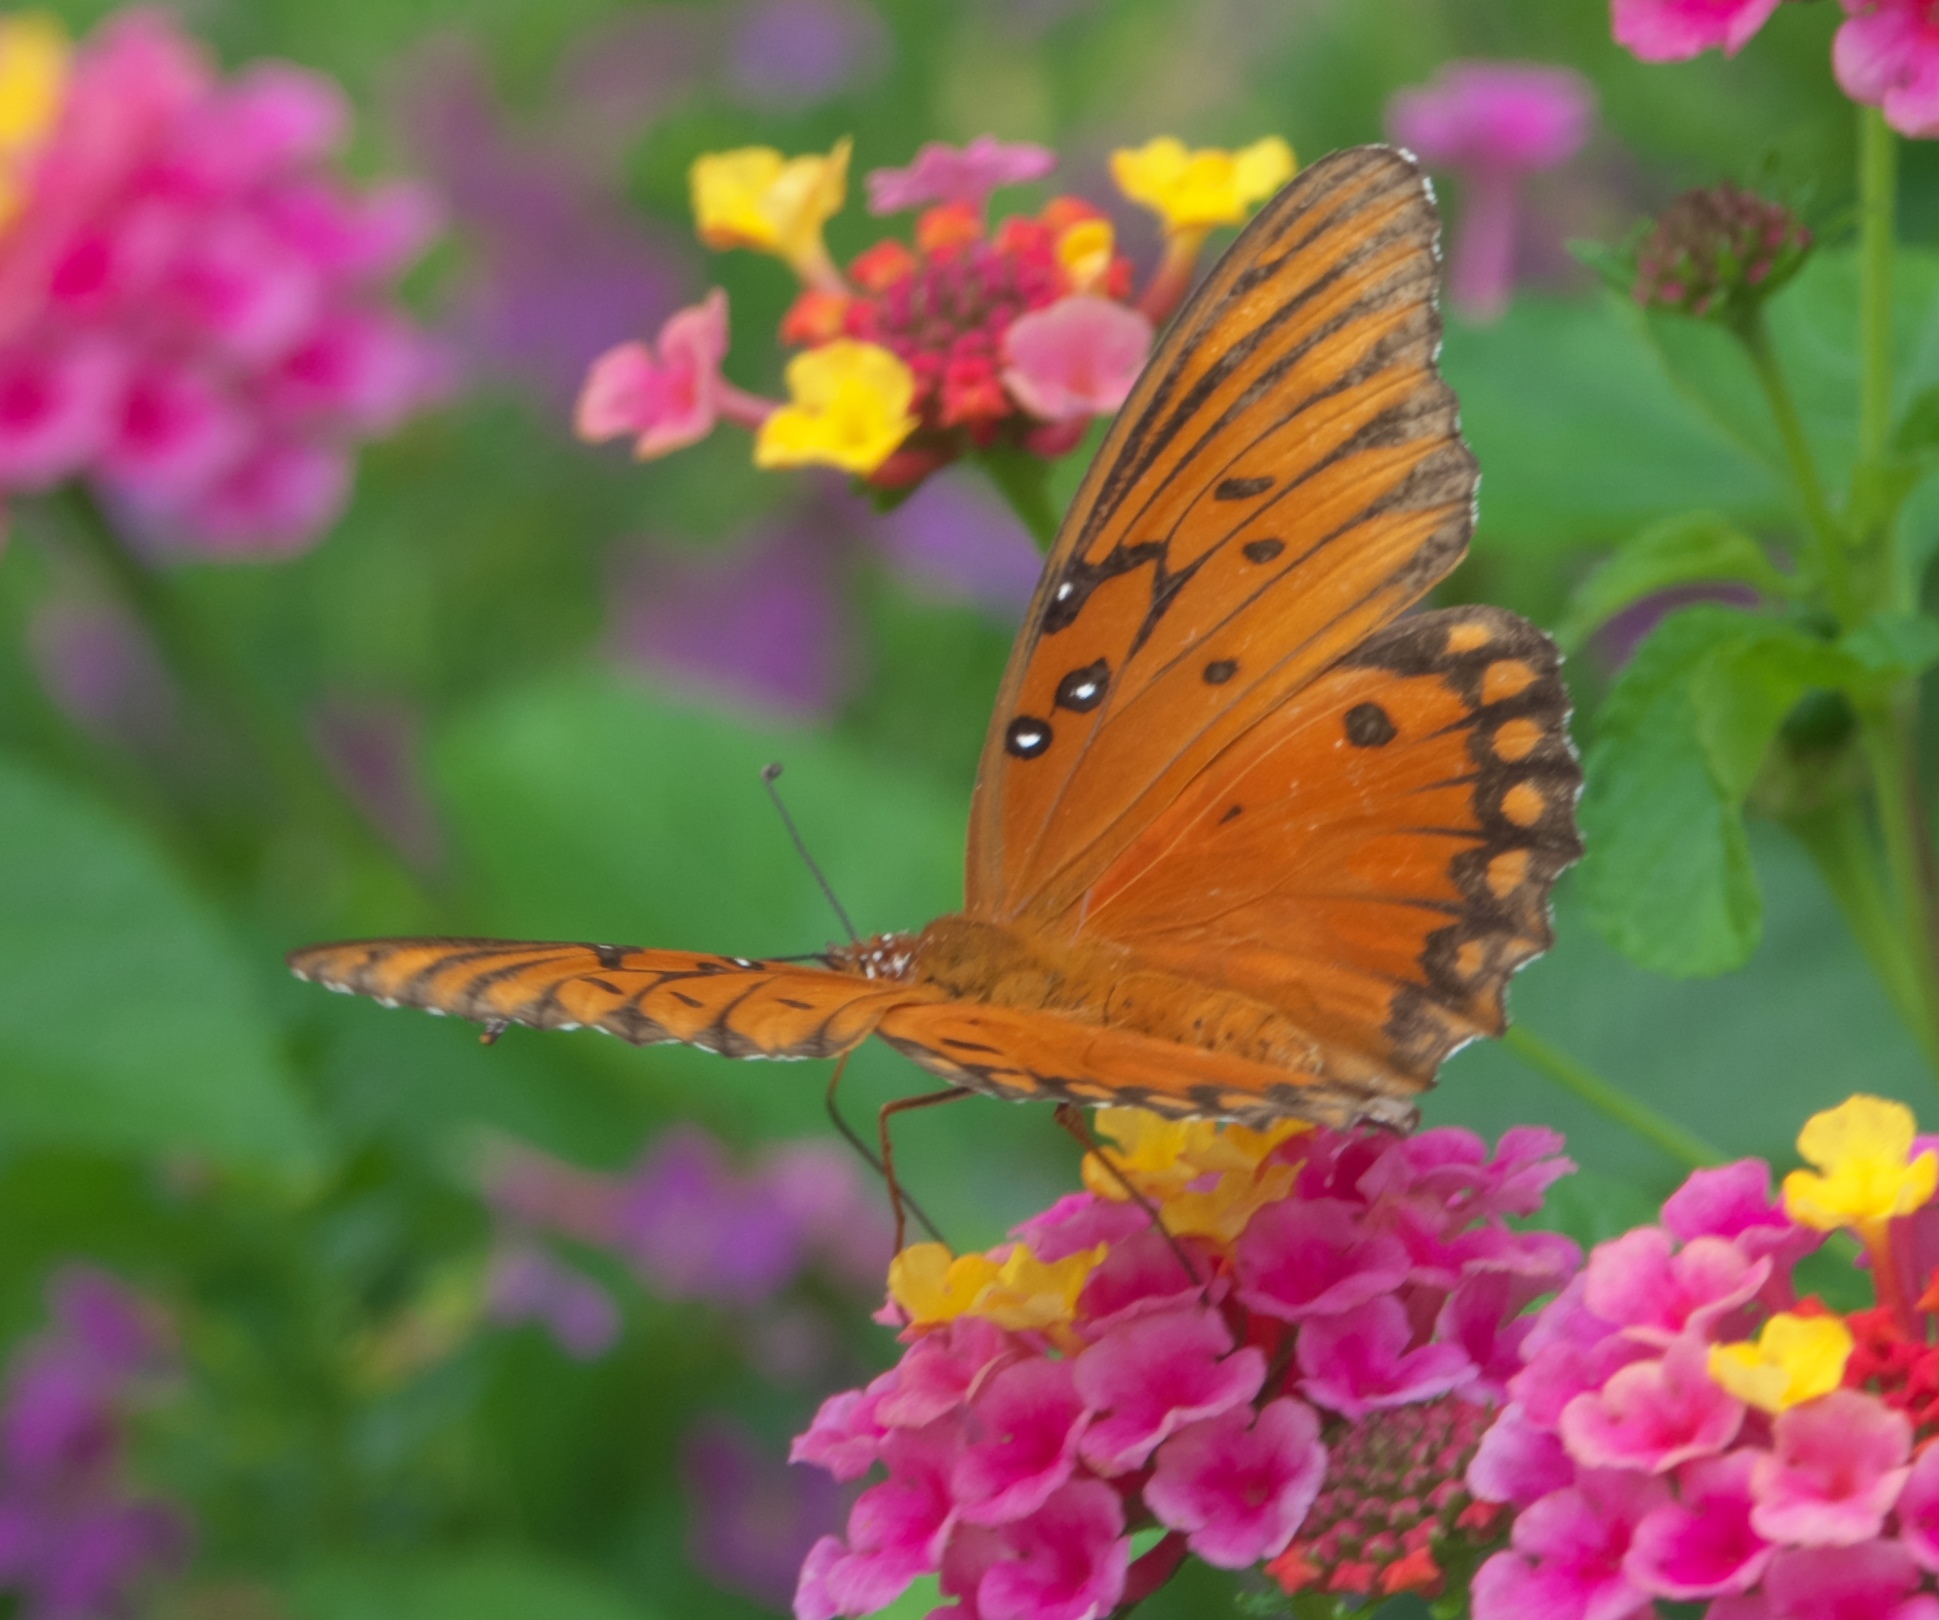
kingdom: Animalia
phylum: Arthropoda
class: Insecta
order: Lepidoptera
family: Nymphalidae
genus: Dione
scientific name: Dione vanillae
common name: Gulf fritillary
